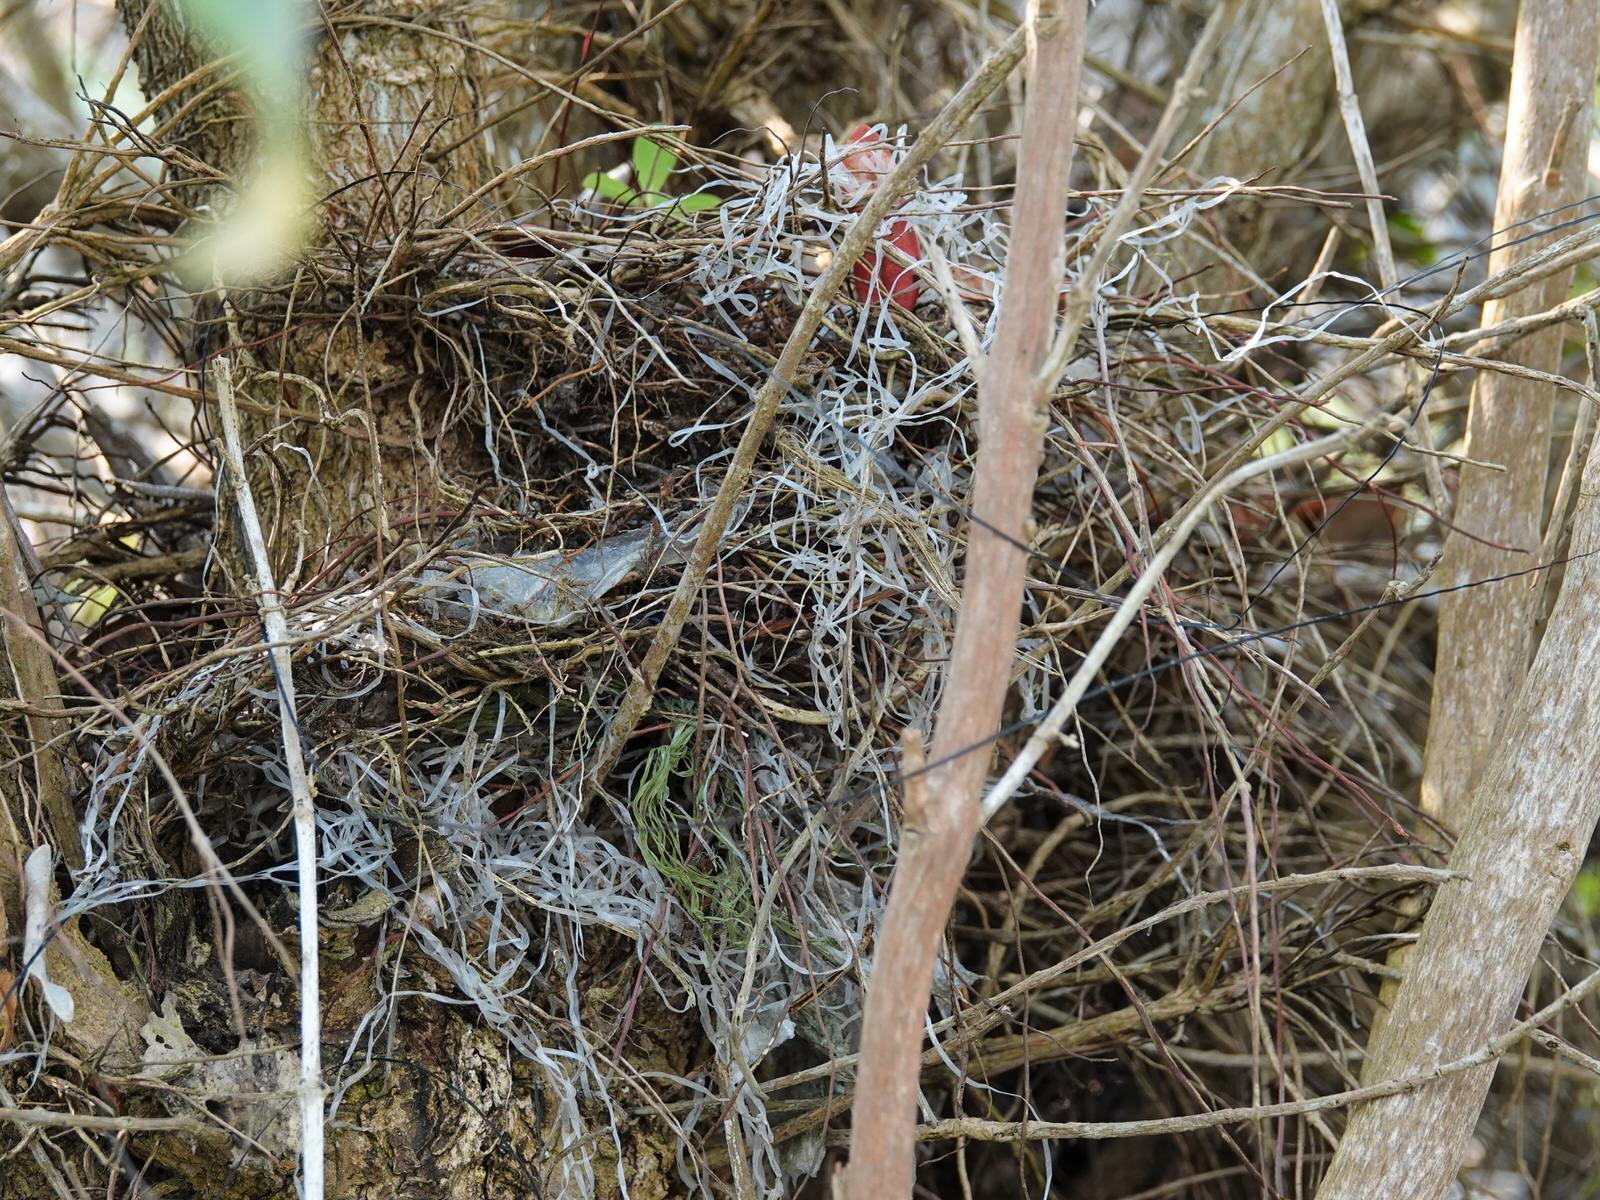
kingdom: Animalia
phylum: Chordata
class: Aves
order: Passeriformes
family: Passeridae
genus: Passer
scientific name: Passer domesticus
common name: House sparrow
